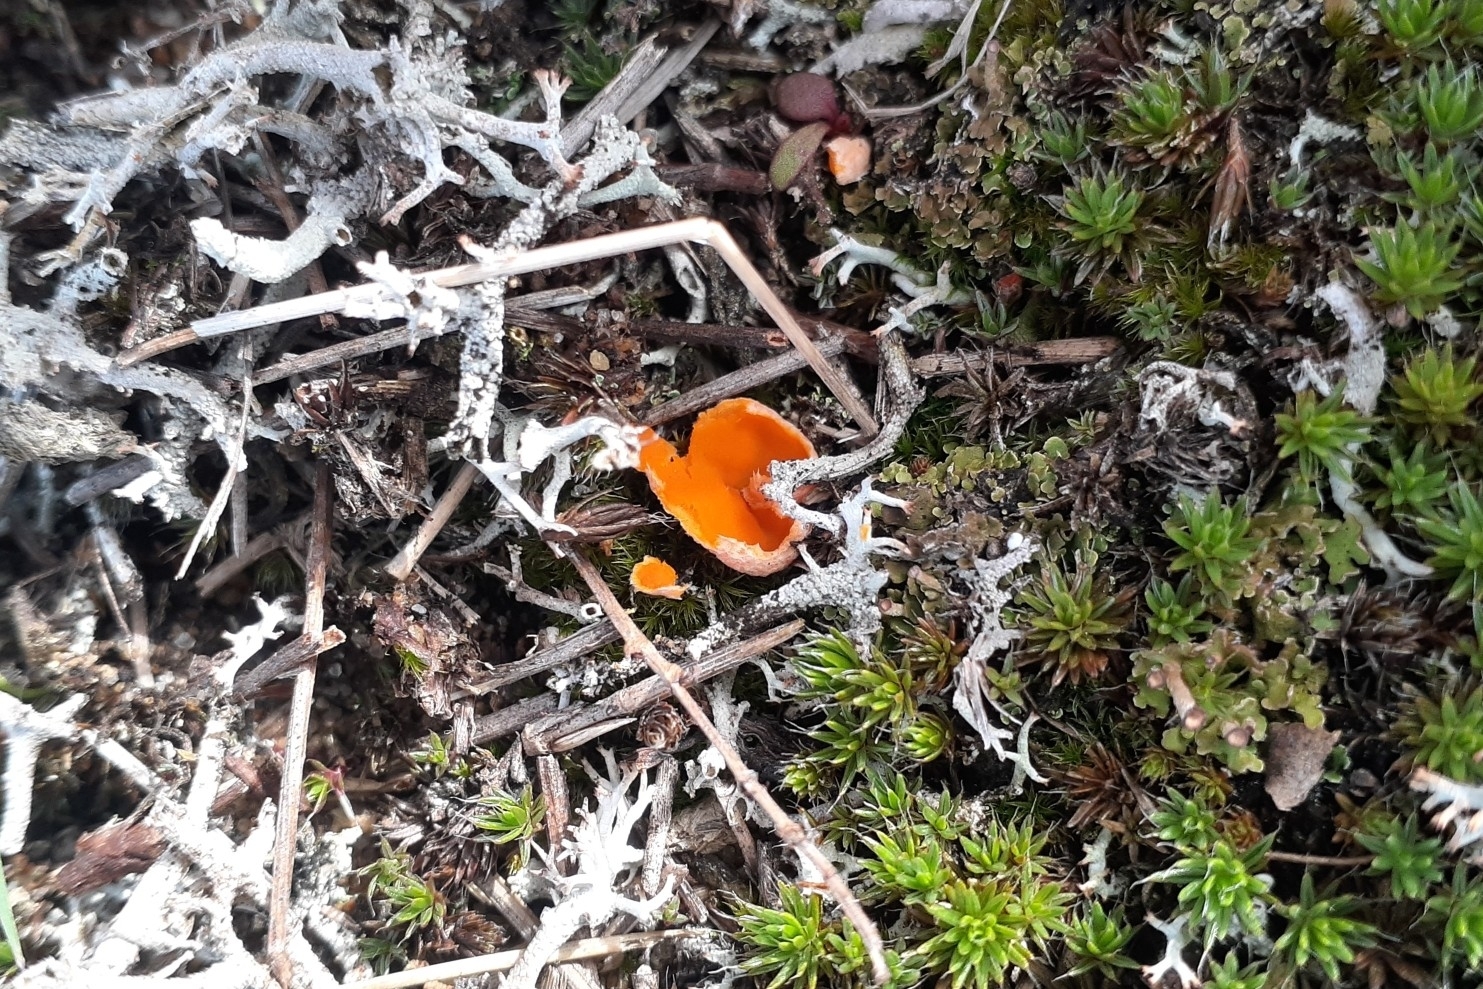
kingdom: Fungi
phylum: Ascomycota
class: Pezizomycetes
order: Pezizales
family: Pyronemataceae
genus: Aleuria
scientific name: Aleuria aurantia
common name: Orange peel fungus
